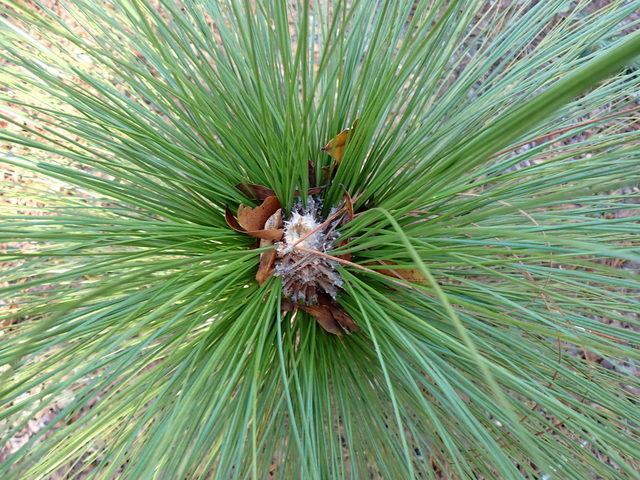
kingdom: Plantae
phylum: Tracheophyta
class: Pinopsida
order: Pinales
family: Pinaceae
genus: Pinus
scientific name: Pinus palustris
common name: Longleaf pine
